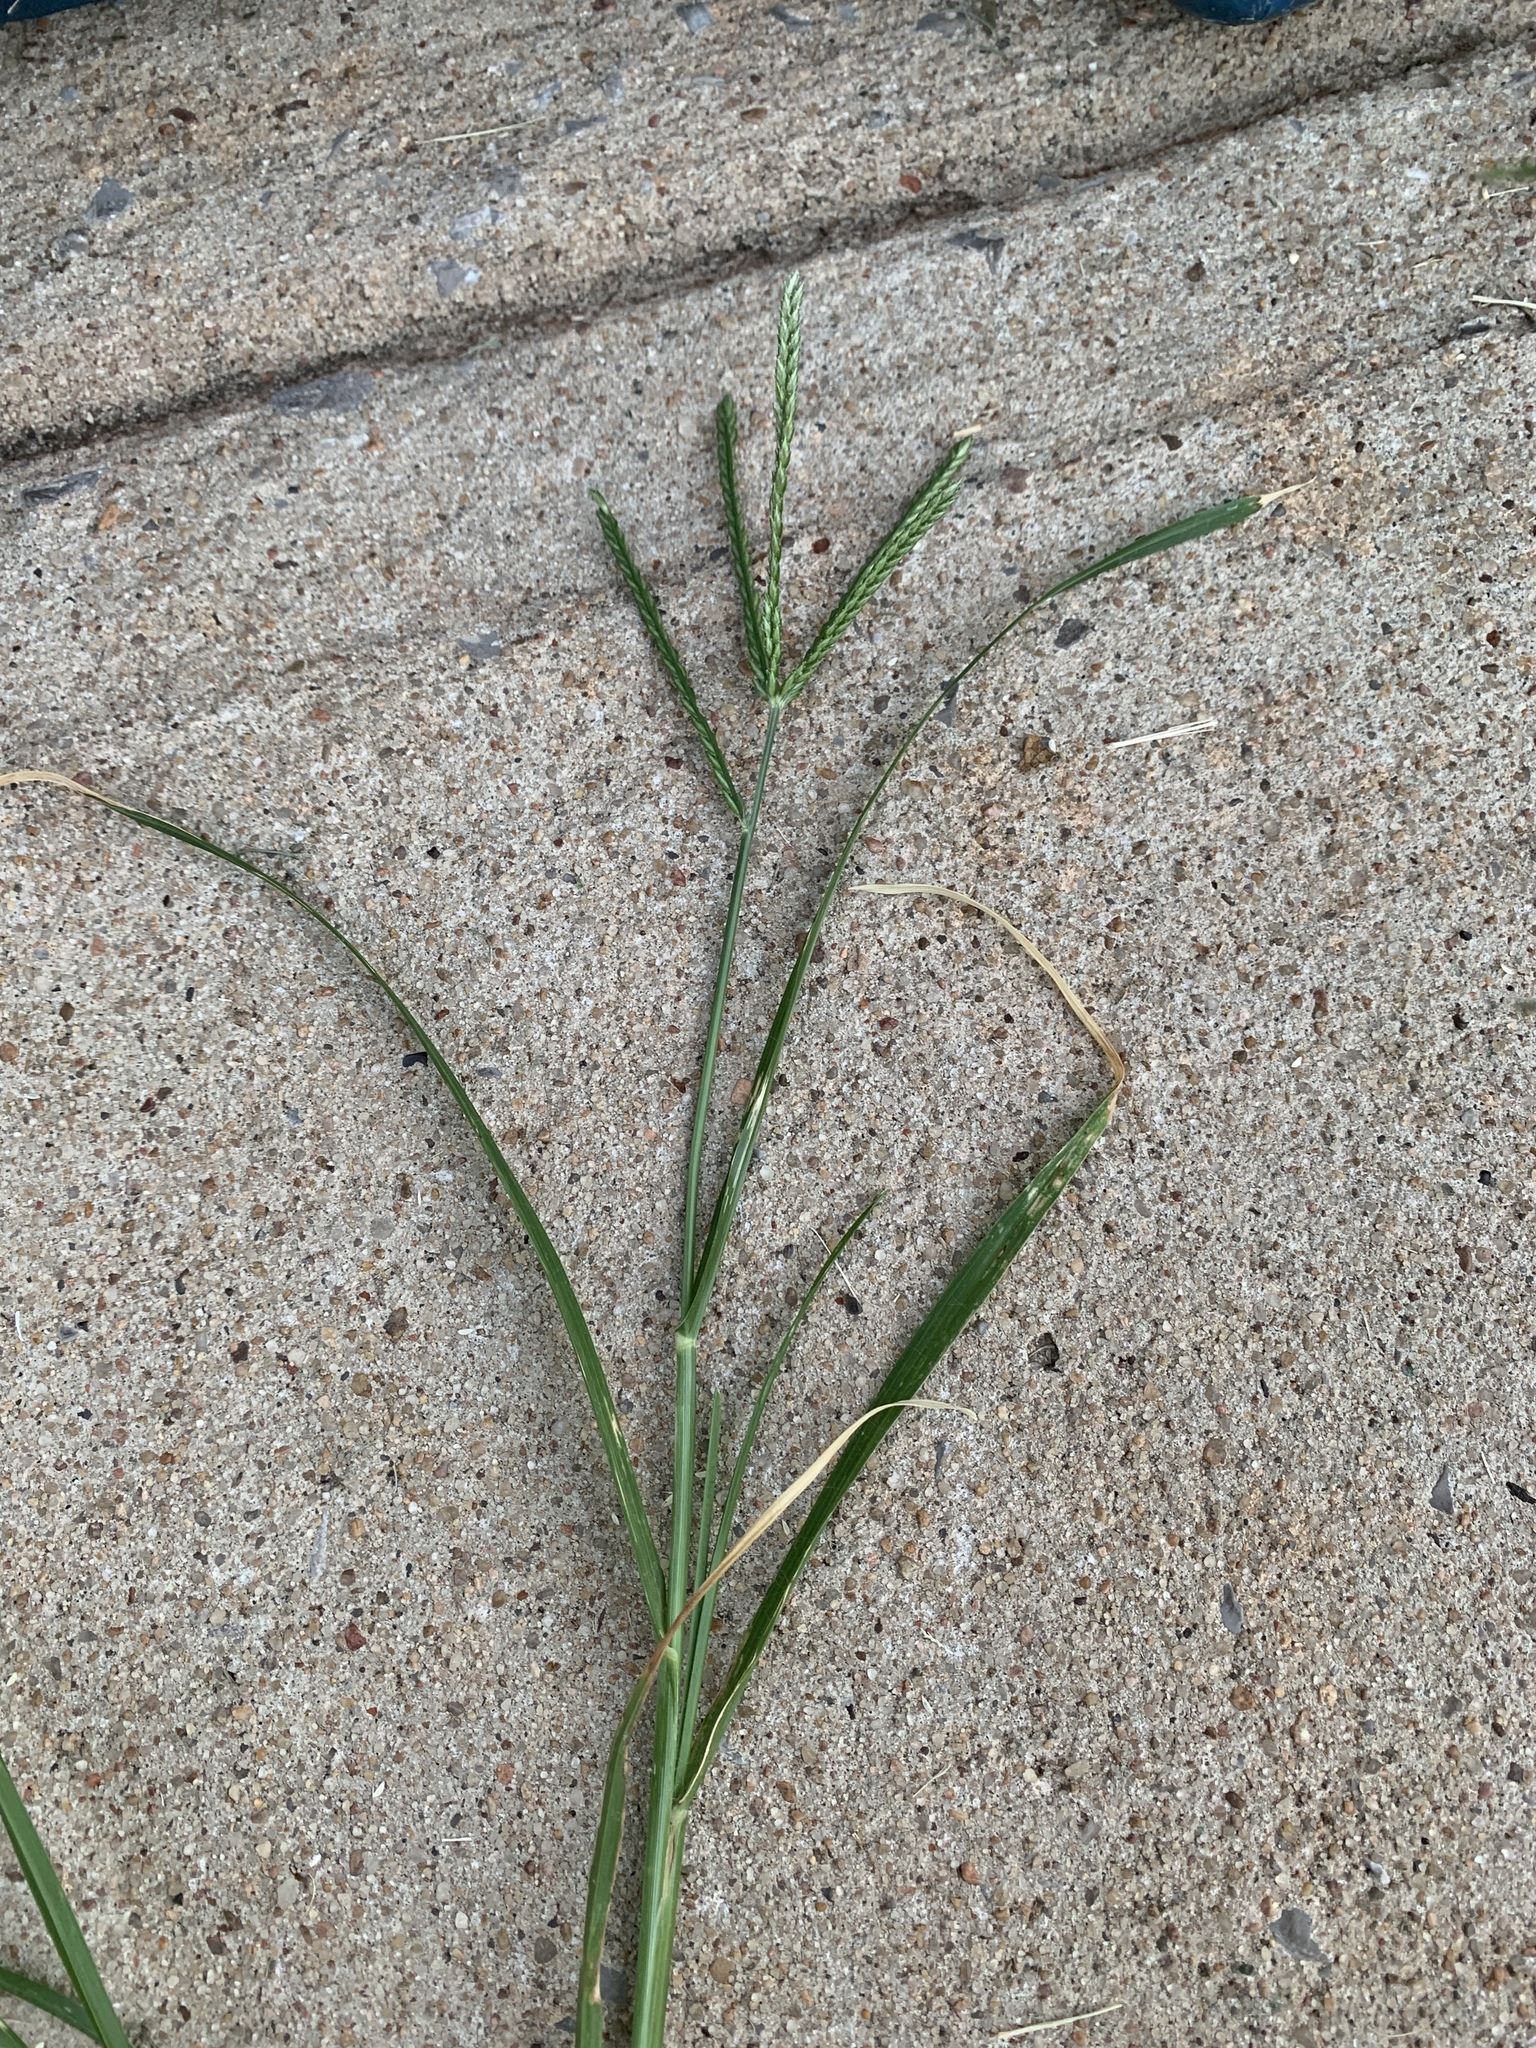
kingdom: Plantae
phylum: Tracheophyta
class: Liliopsida
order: Poales
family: Poaceae
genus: Eleusine
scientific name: Eleusine indica
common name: Yard-grass
